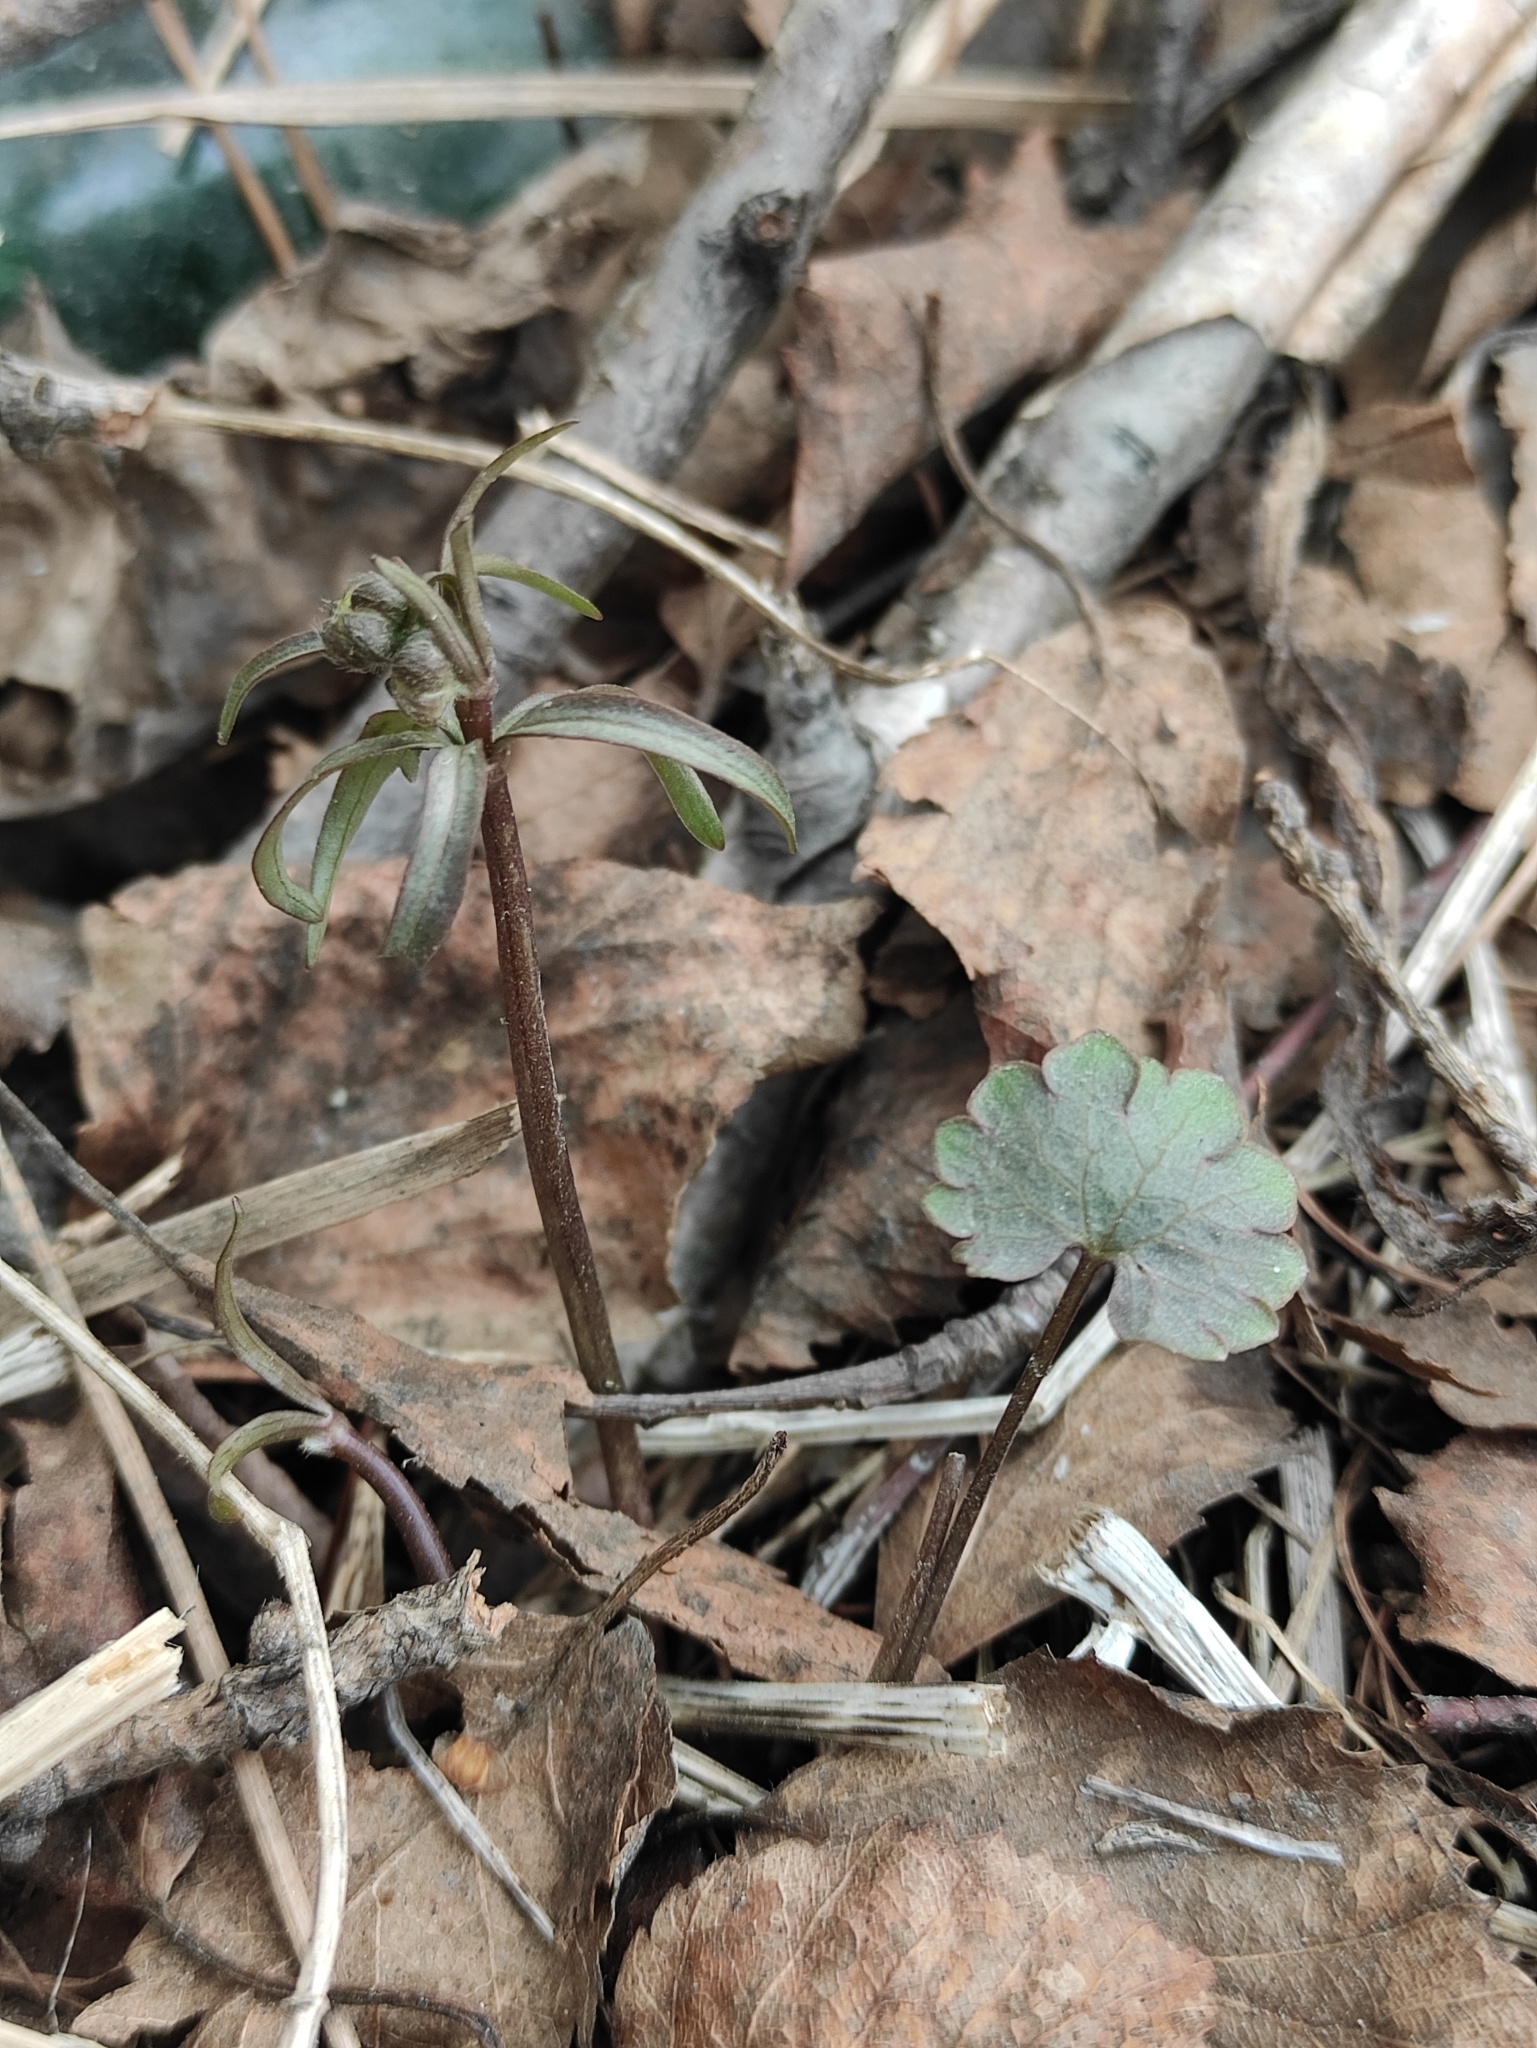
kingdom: Plantae
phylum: Tracheophyta
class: Magnoliopsida
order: Ranunculales
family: Ranunculaceae
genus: Ranunculus
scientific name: Ranunculus monophyllus
